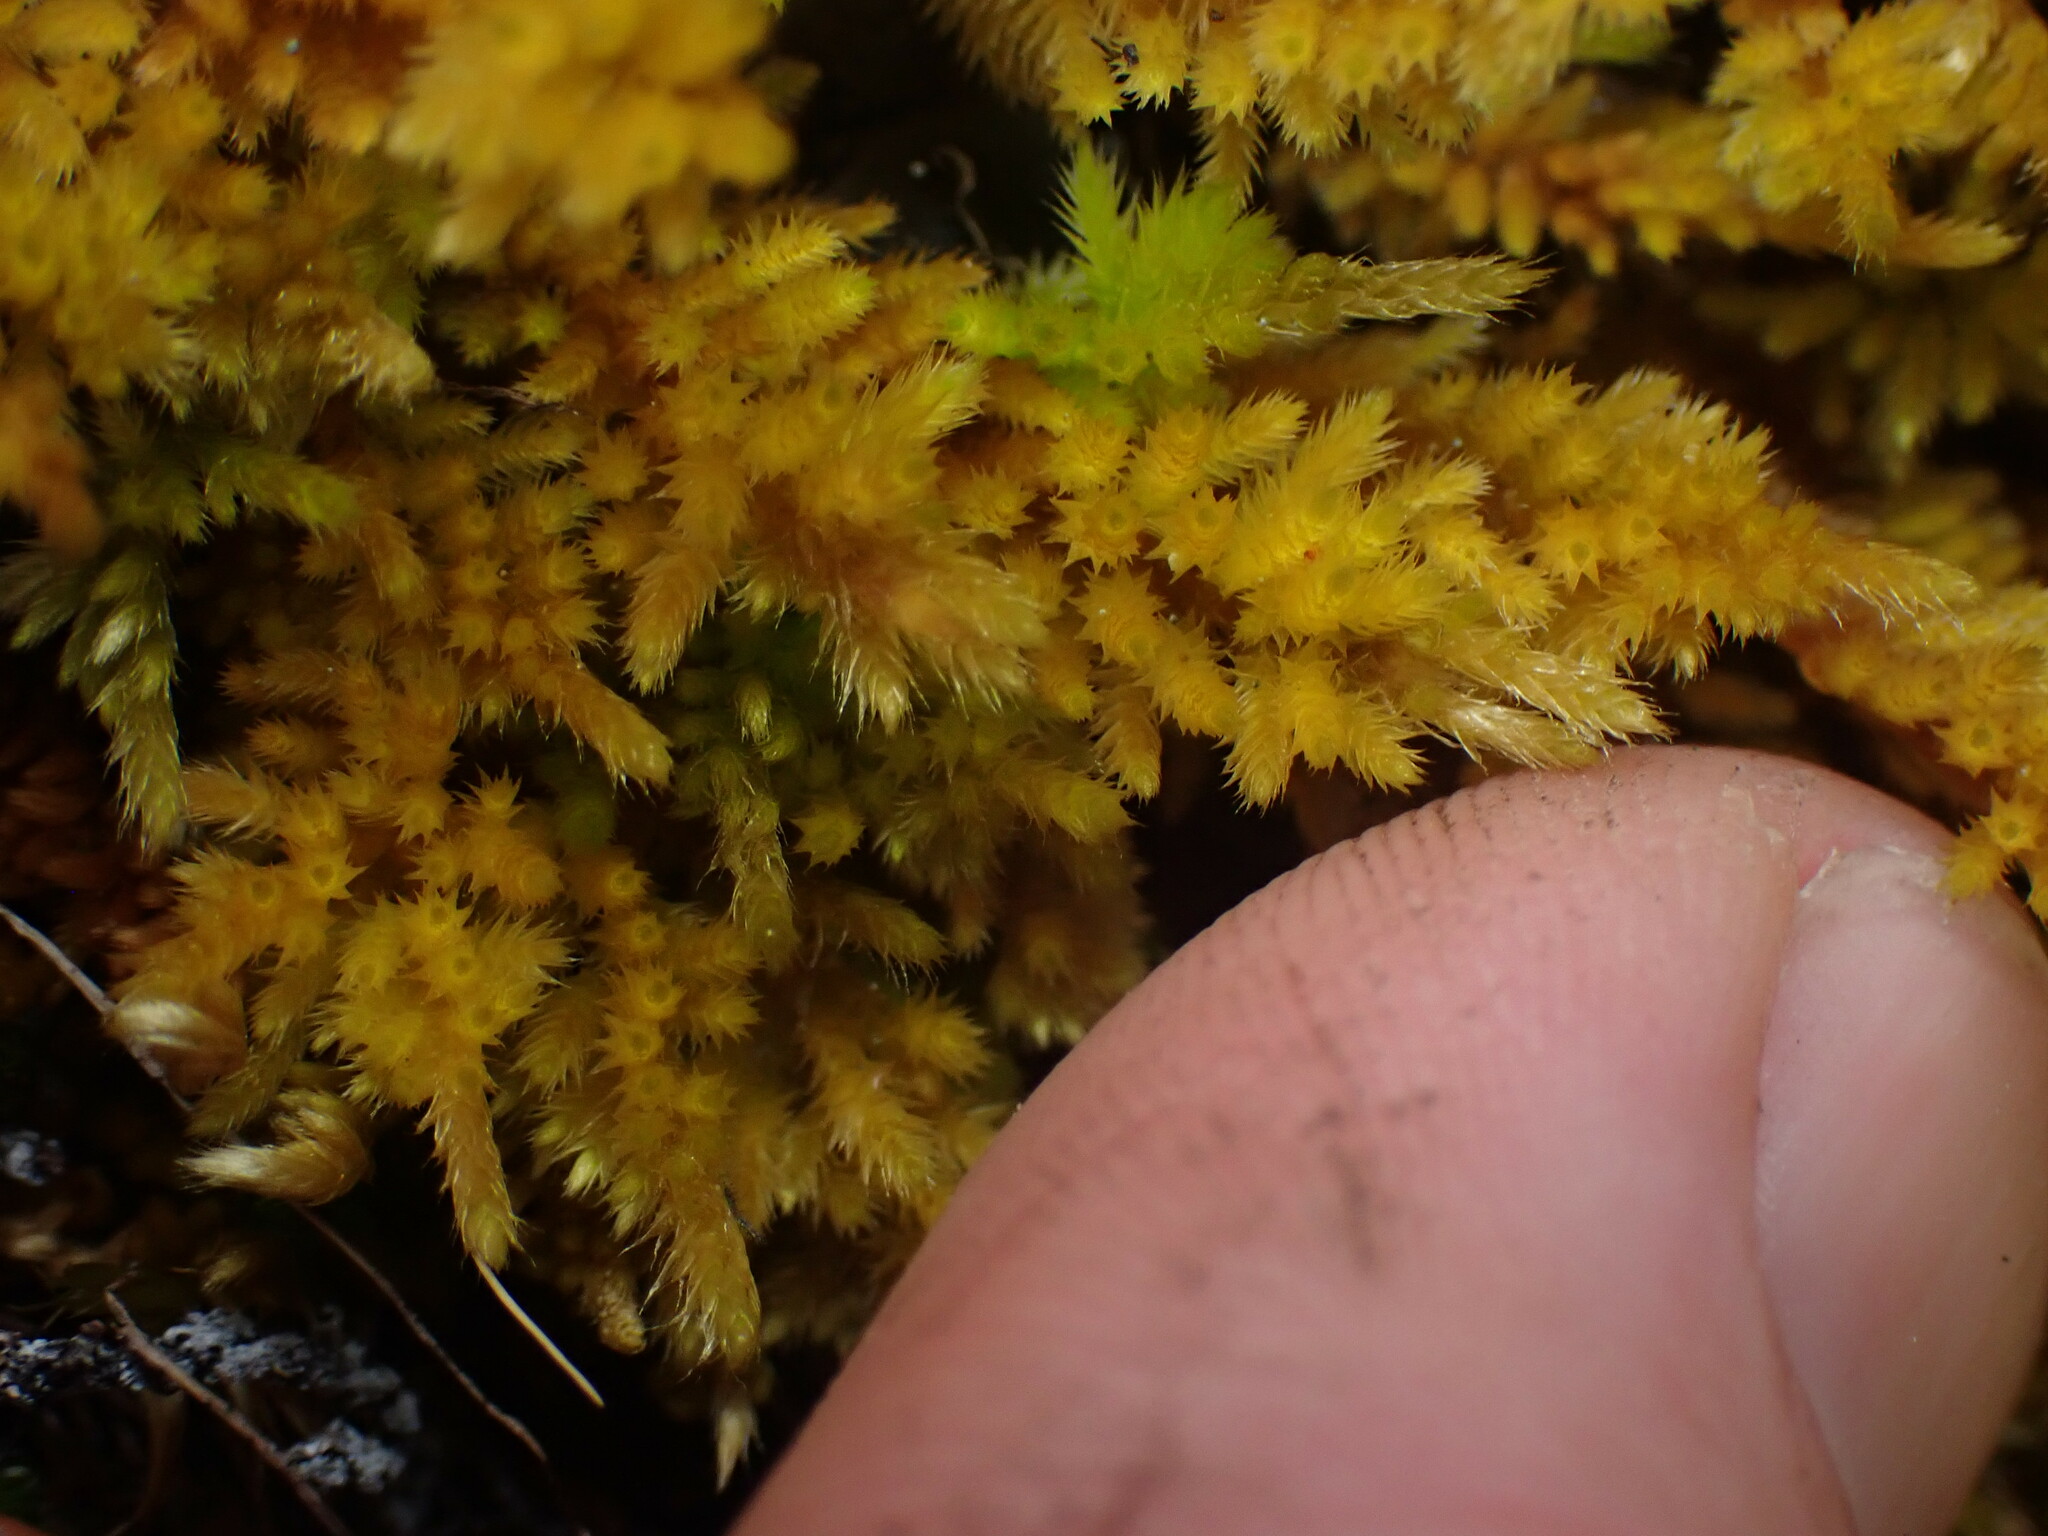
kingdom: Plantae
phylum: Bryophyta
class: Bryopsida
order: Hypnales
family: Brachytheciaceae
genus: Homalothecium
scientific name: Homalothecium nuttallii
